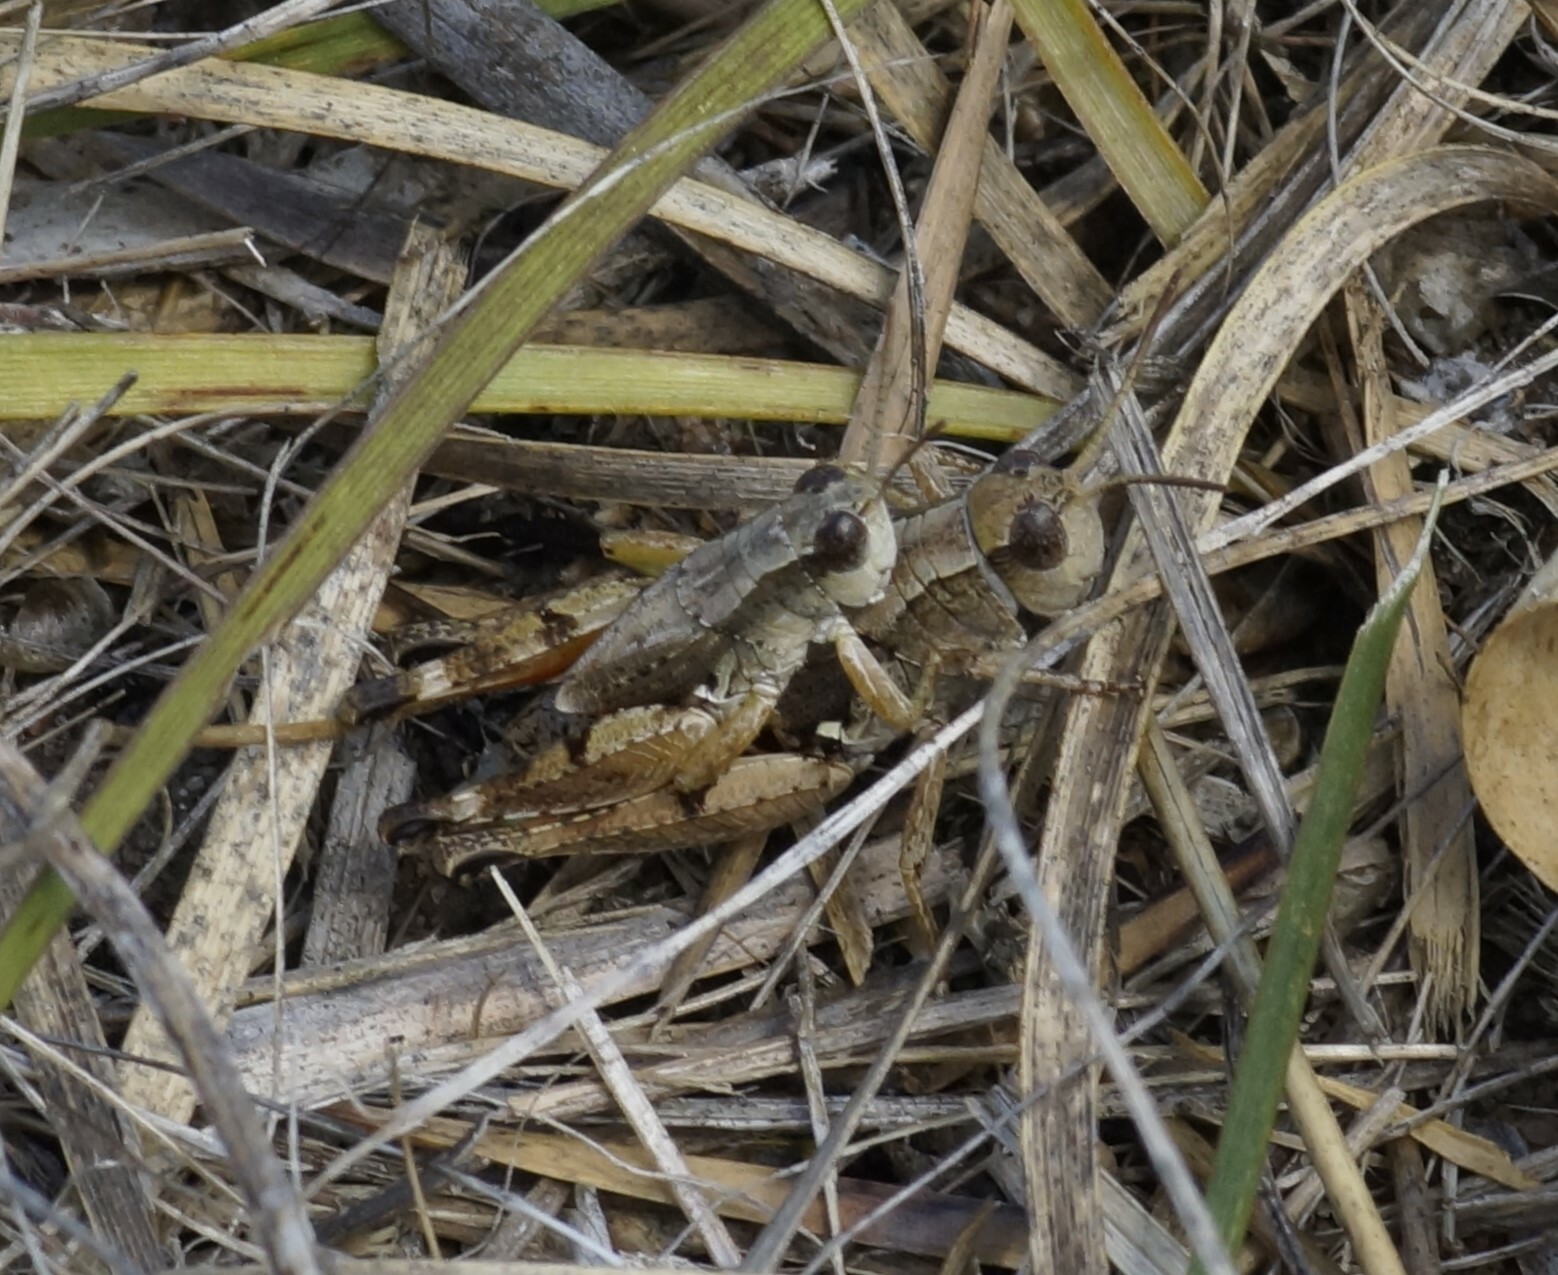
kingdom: Animalia
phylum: Arthropoda
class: Insecta
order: Orthoptera
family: Acrididae
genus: Phaulacridium
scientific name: Phaulacridium vittatum
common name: Wingless grasshopper
